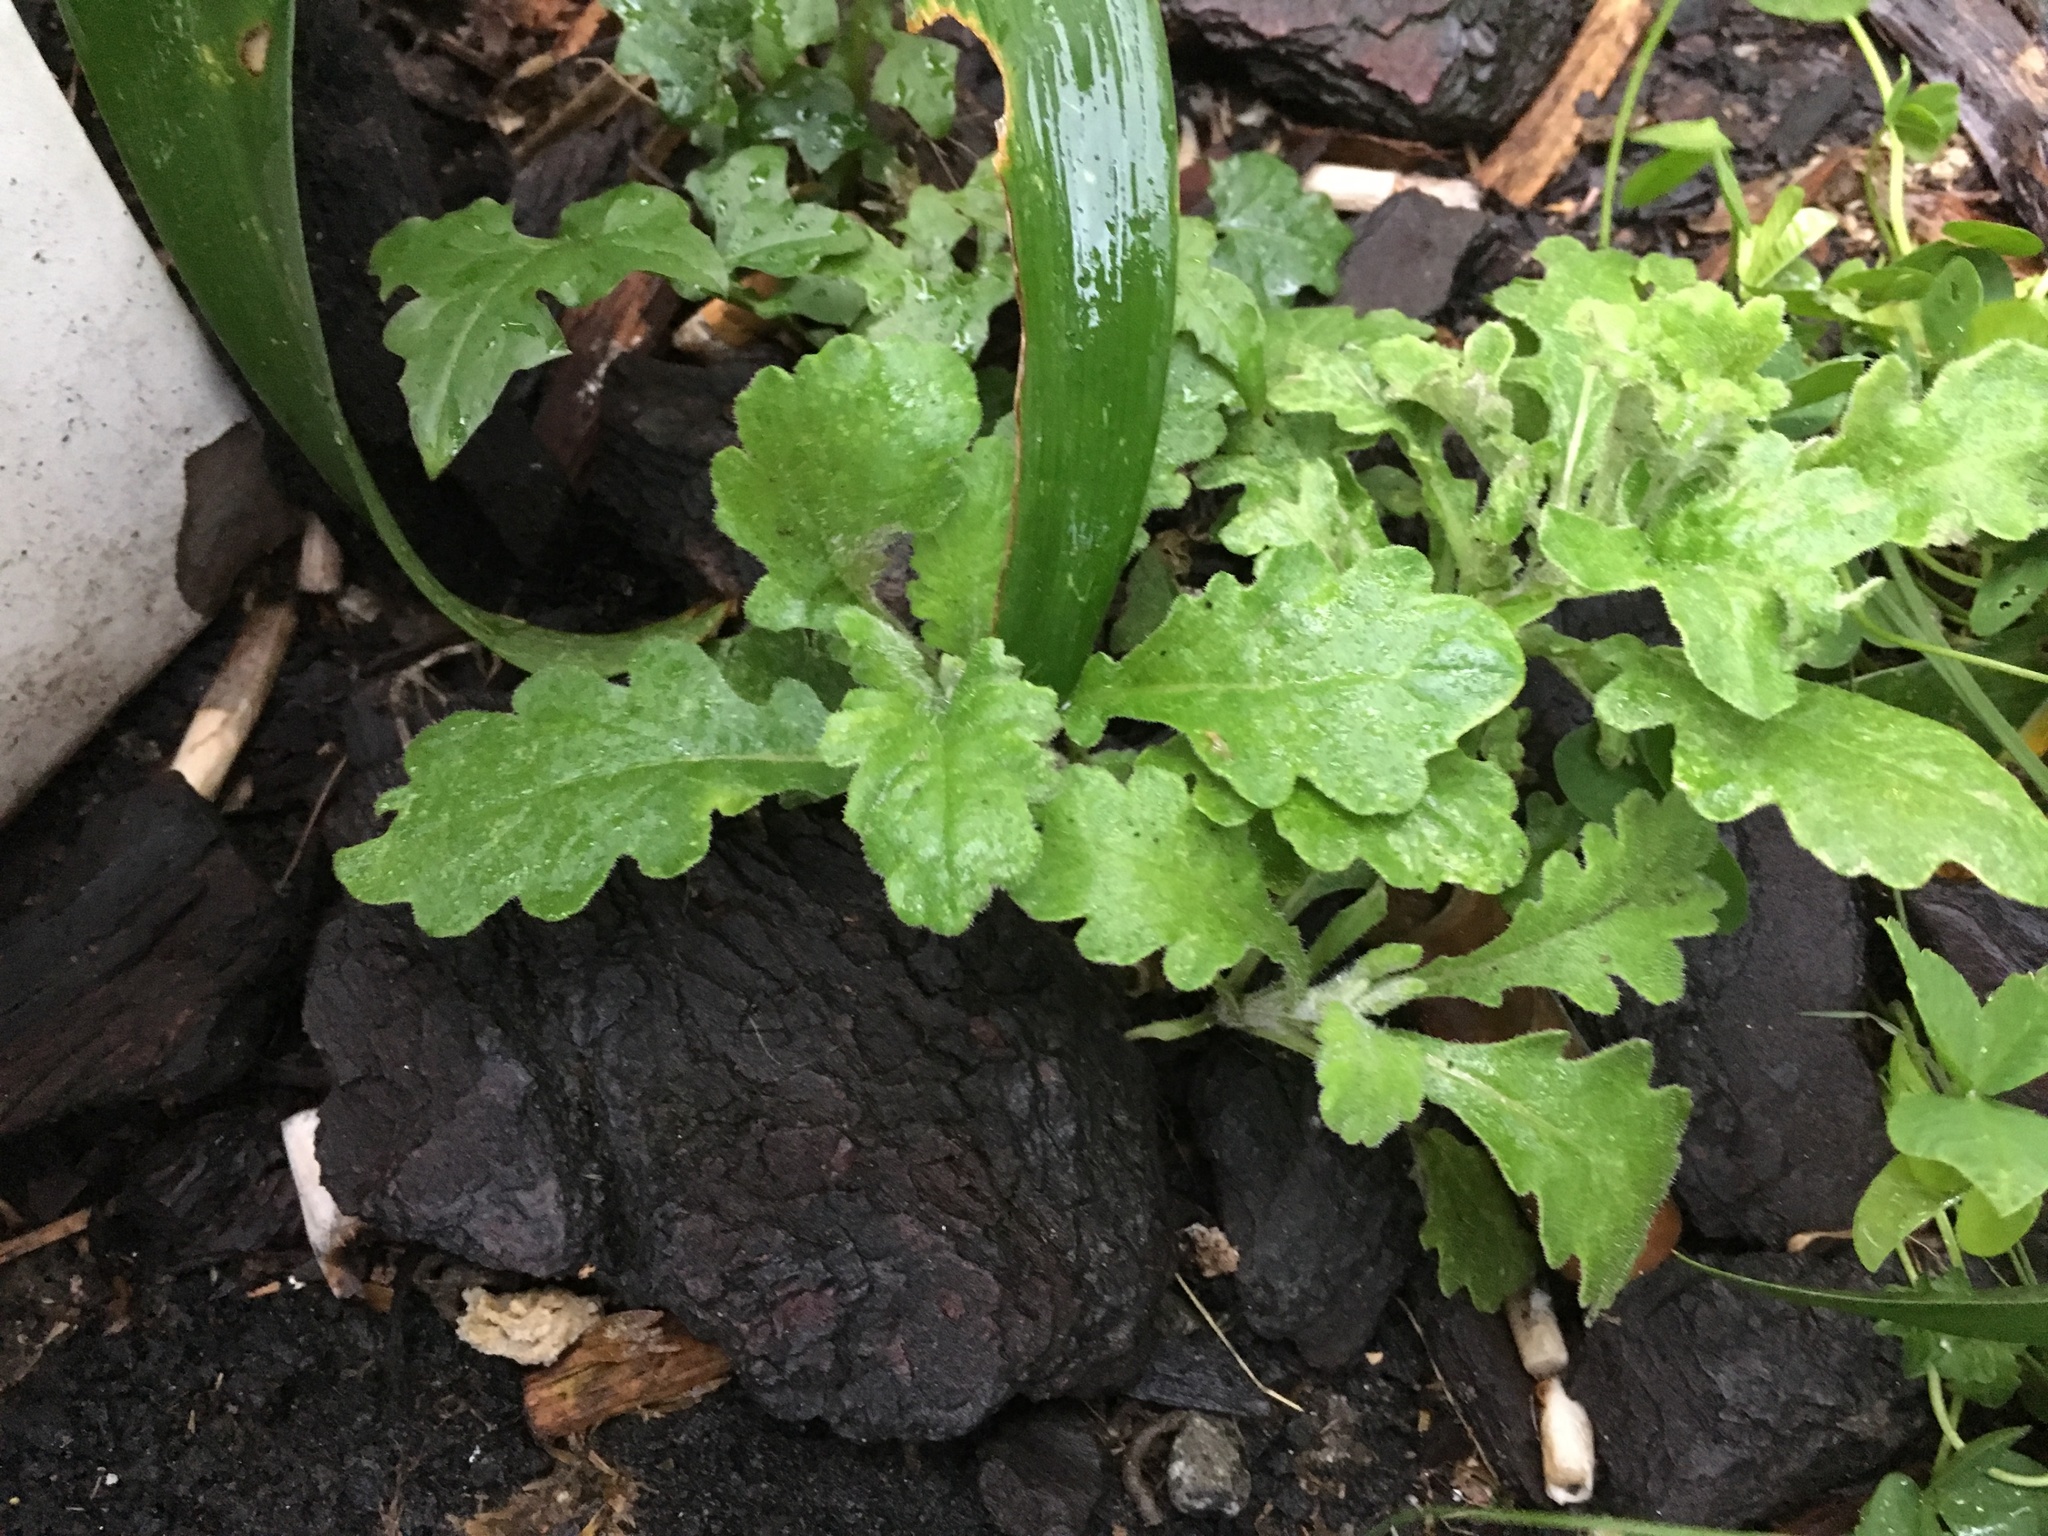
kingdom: Plantae
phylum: Tracheophyta
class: Magnoliopsida
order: Asterales
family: Asteraceae
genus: Senecio
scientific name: Senecio glomeratus
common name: Cutleaf burnweed
